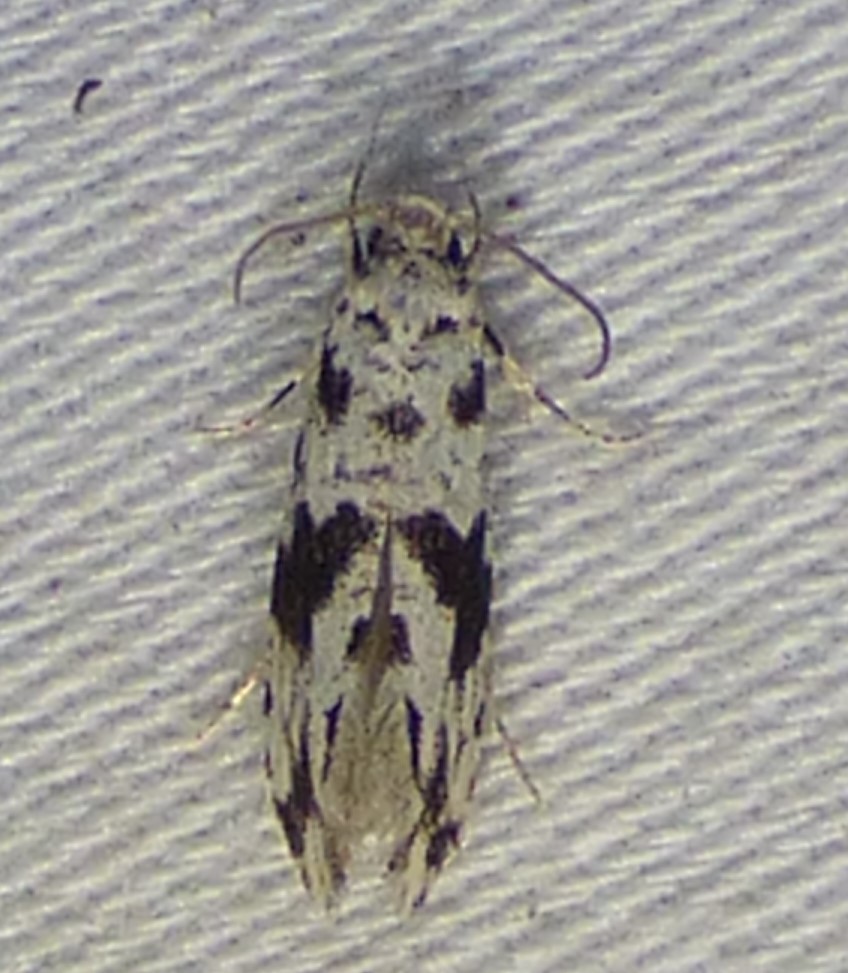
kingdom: Animalia
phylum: Arthropoda
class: Insecta
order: Lepidoptera
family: Tineidae
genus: Nemapogon
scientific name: Nemapogon angulifasciella
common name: Black-patched nemapogon
